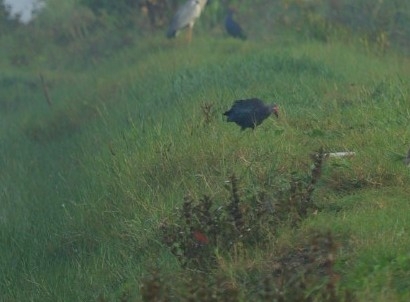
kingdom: Animalia
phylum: Chordata
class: Aves
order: Gruiformes
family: Rallidae
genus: Porphyrio
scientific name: Porphyrio porphyrio
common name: Purple swamphen
